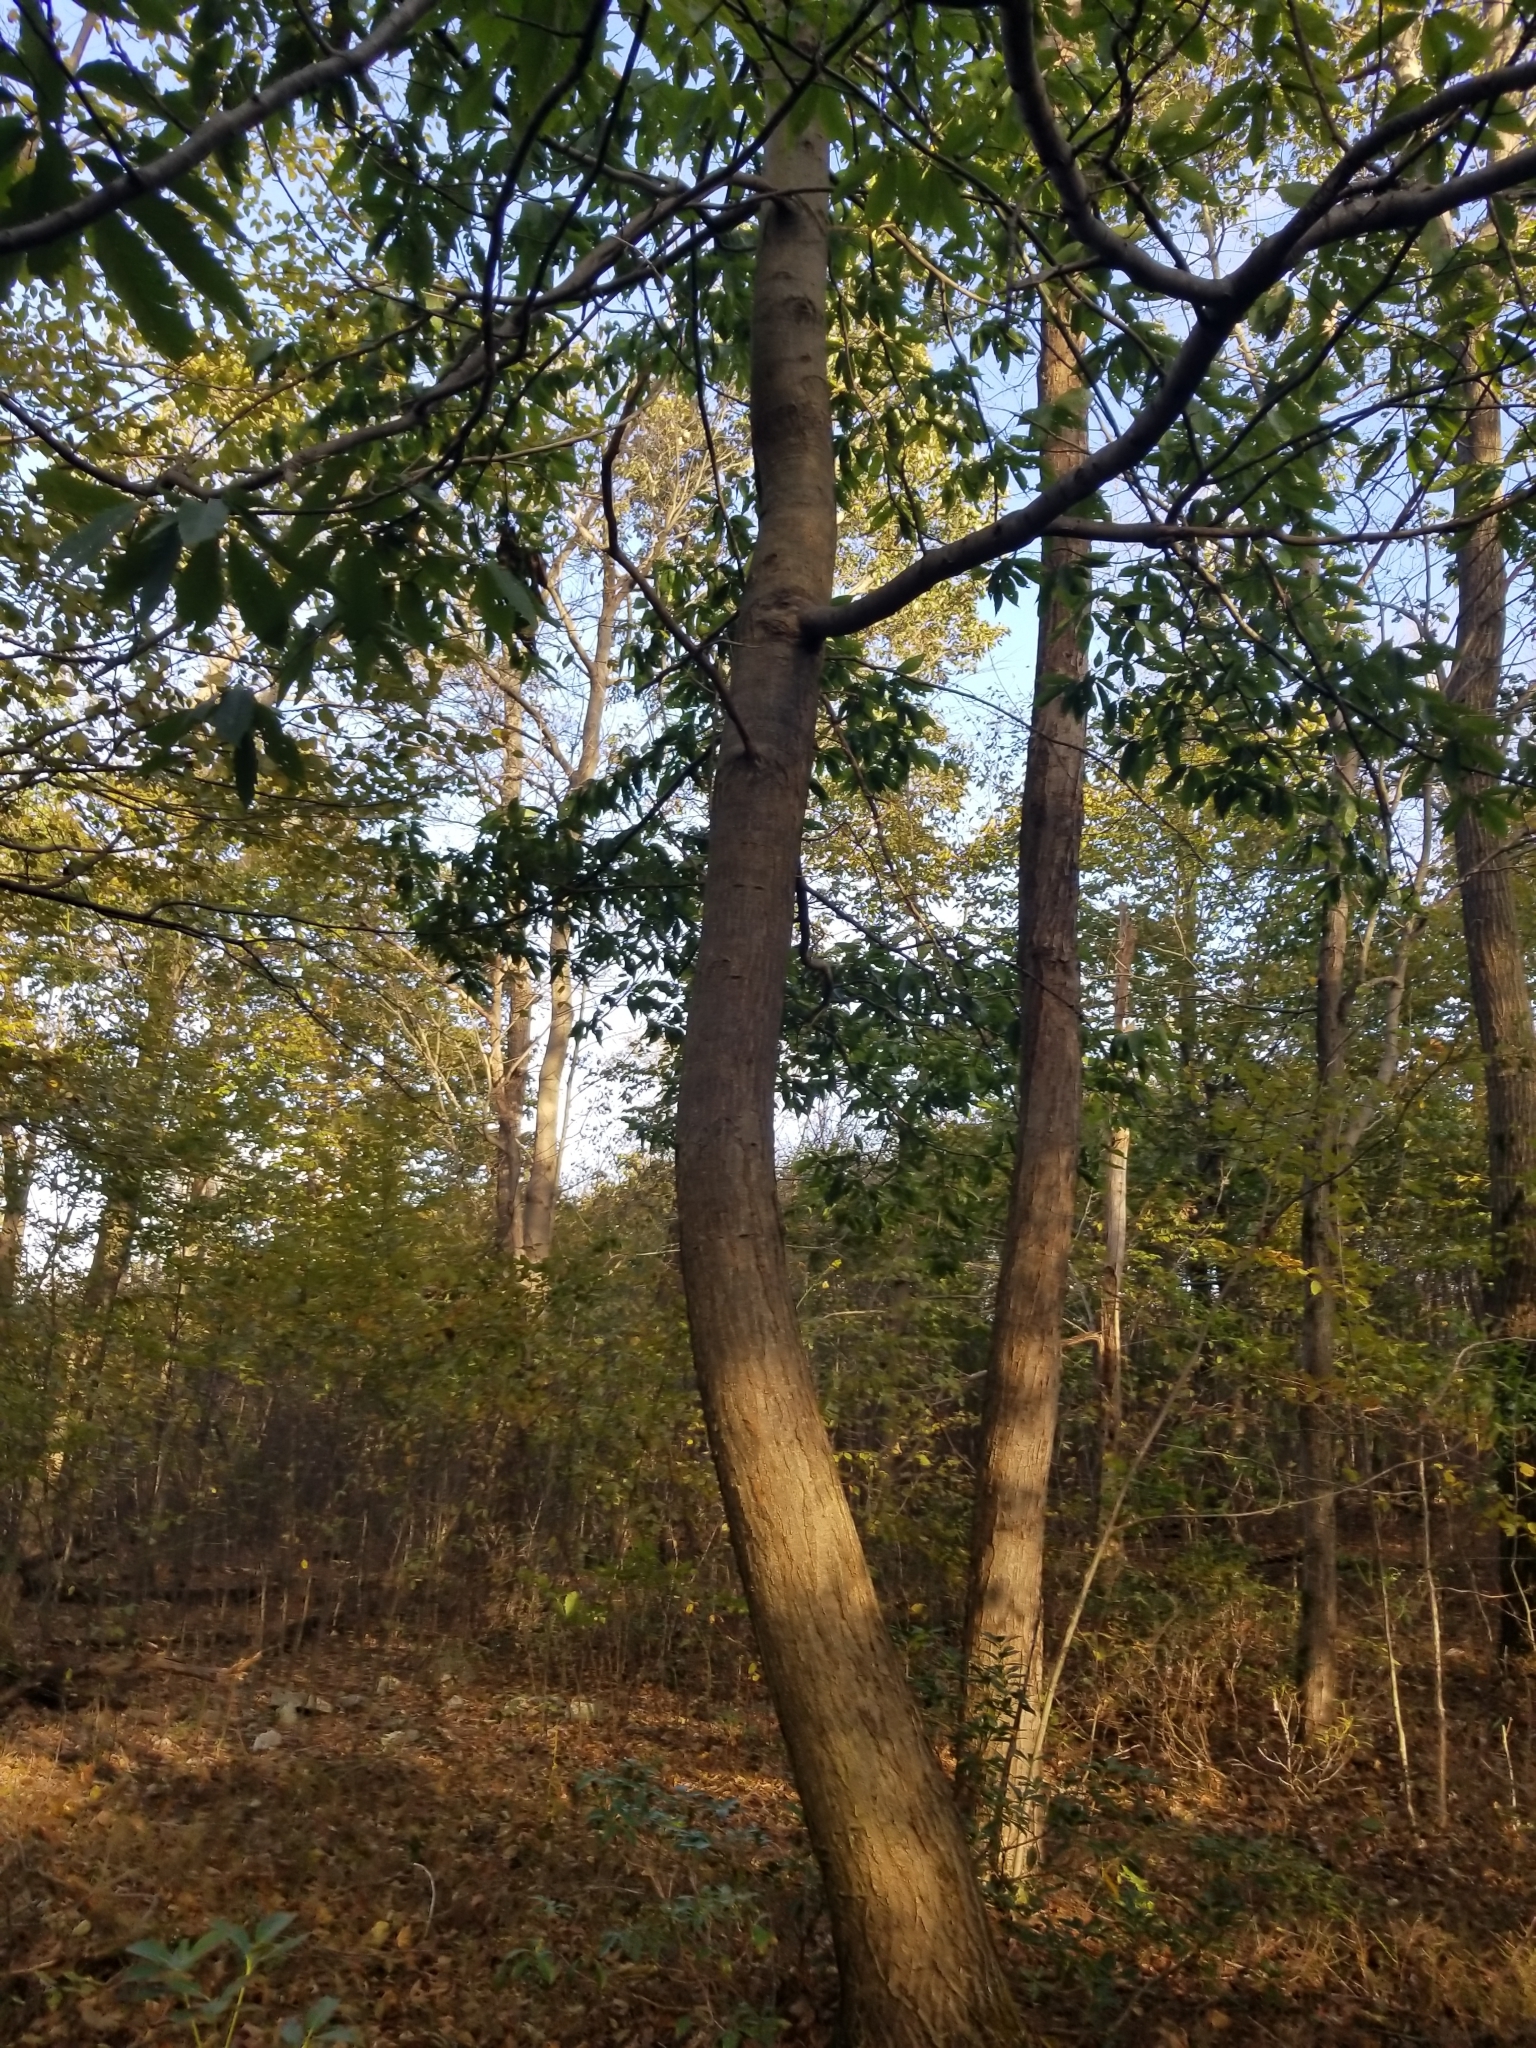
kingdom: Plantae
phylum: Tracheophyta
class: Magnoliopsida
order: Fagales
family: Fagaceae
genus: Castanea
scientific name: Castanea dentata
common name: American chestnut
